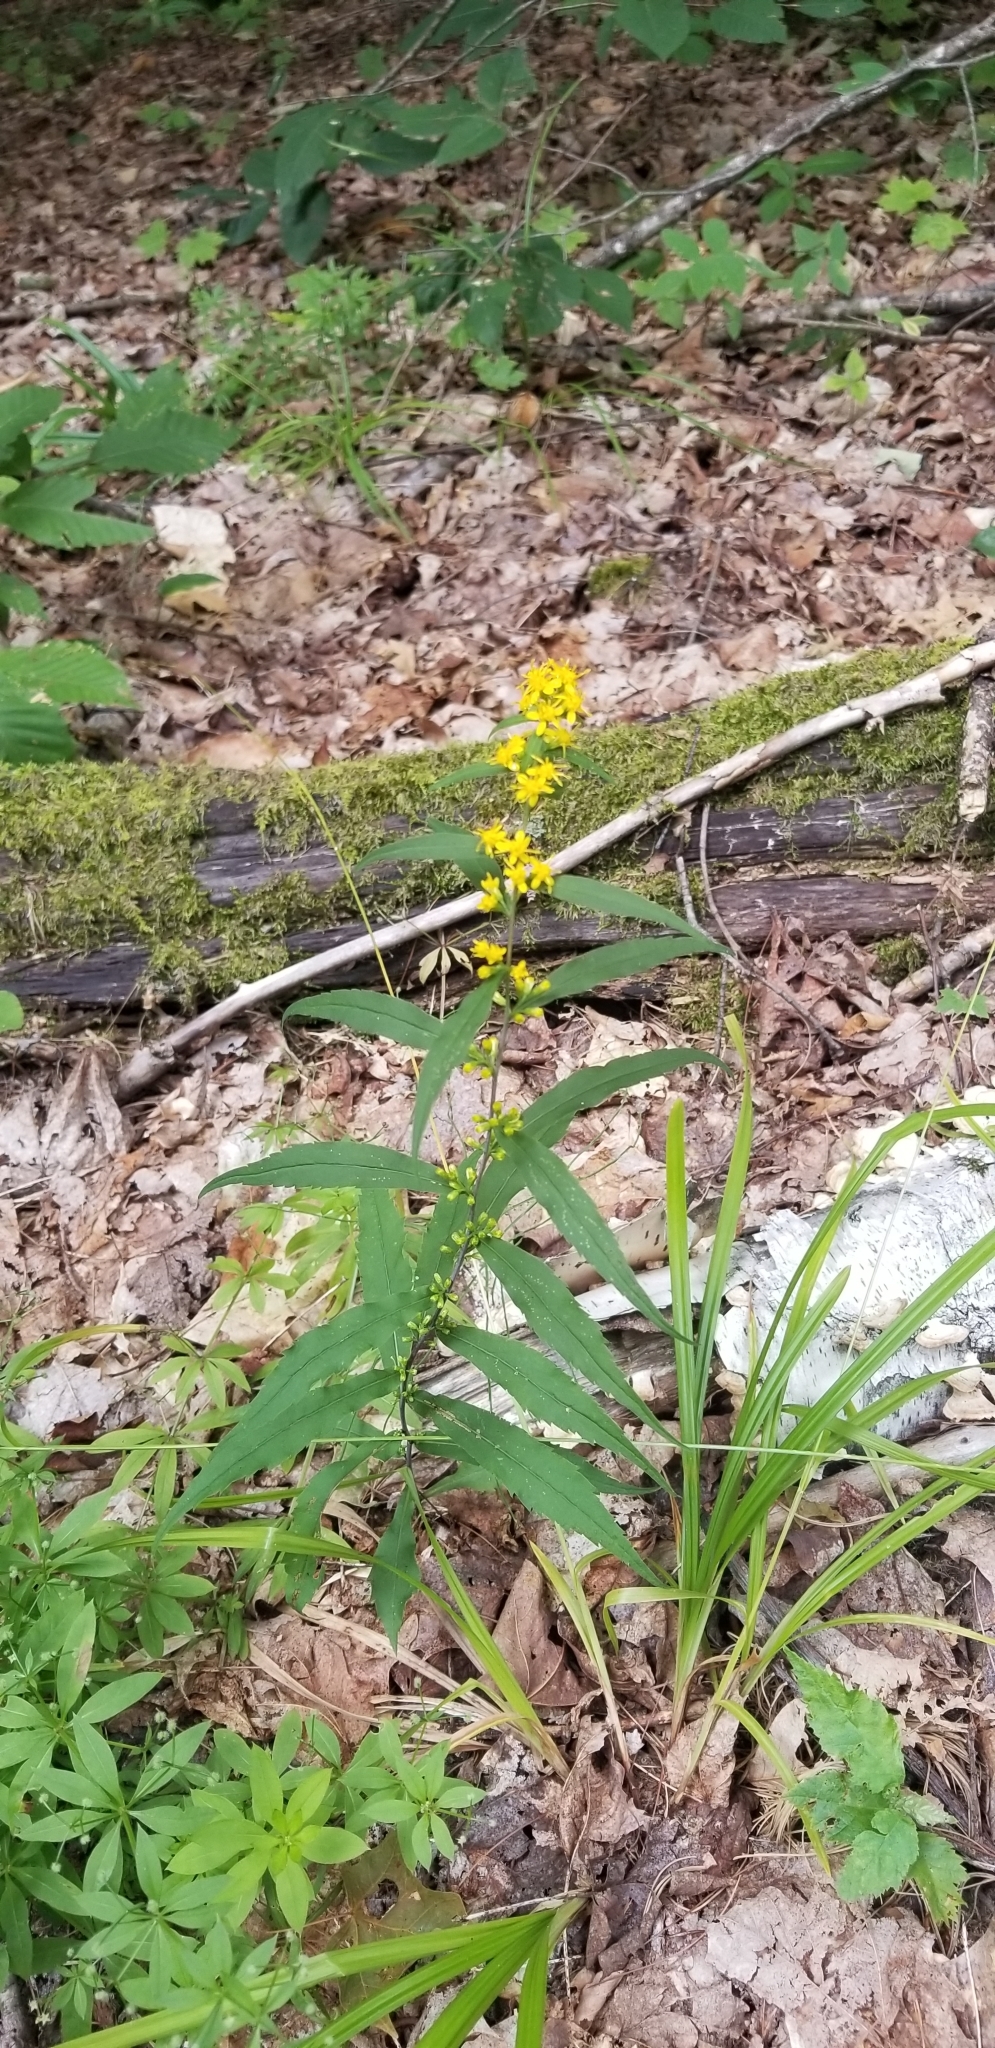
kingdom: Plantae
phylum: Tracheophyta
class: Magnoliopsida
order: Asterales
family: Asteraceae
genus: Solidago
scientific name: Solidago caesia
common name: Woodland goldenrod
